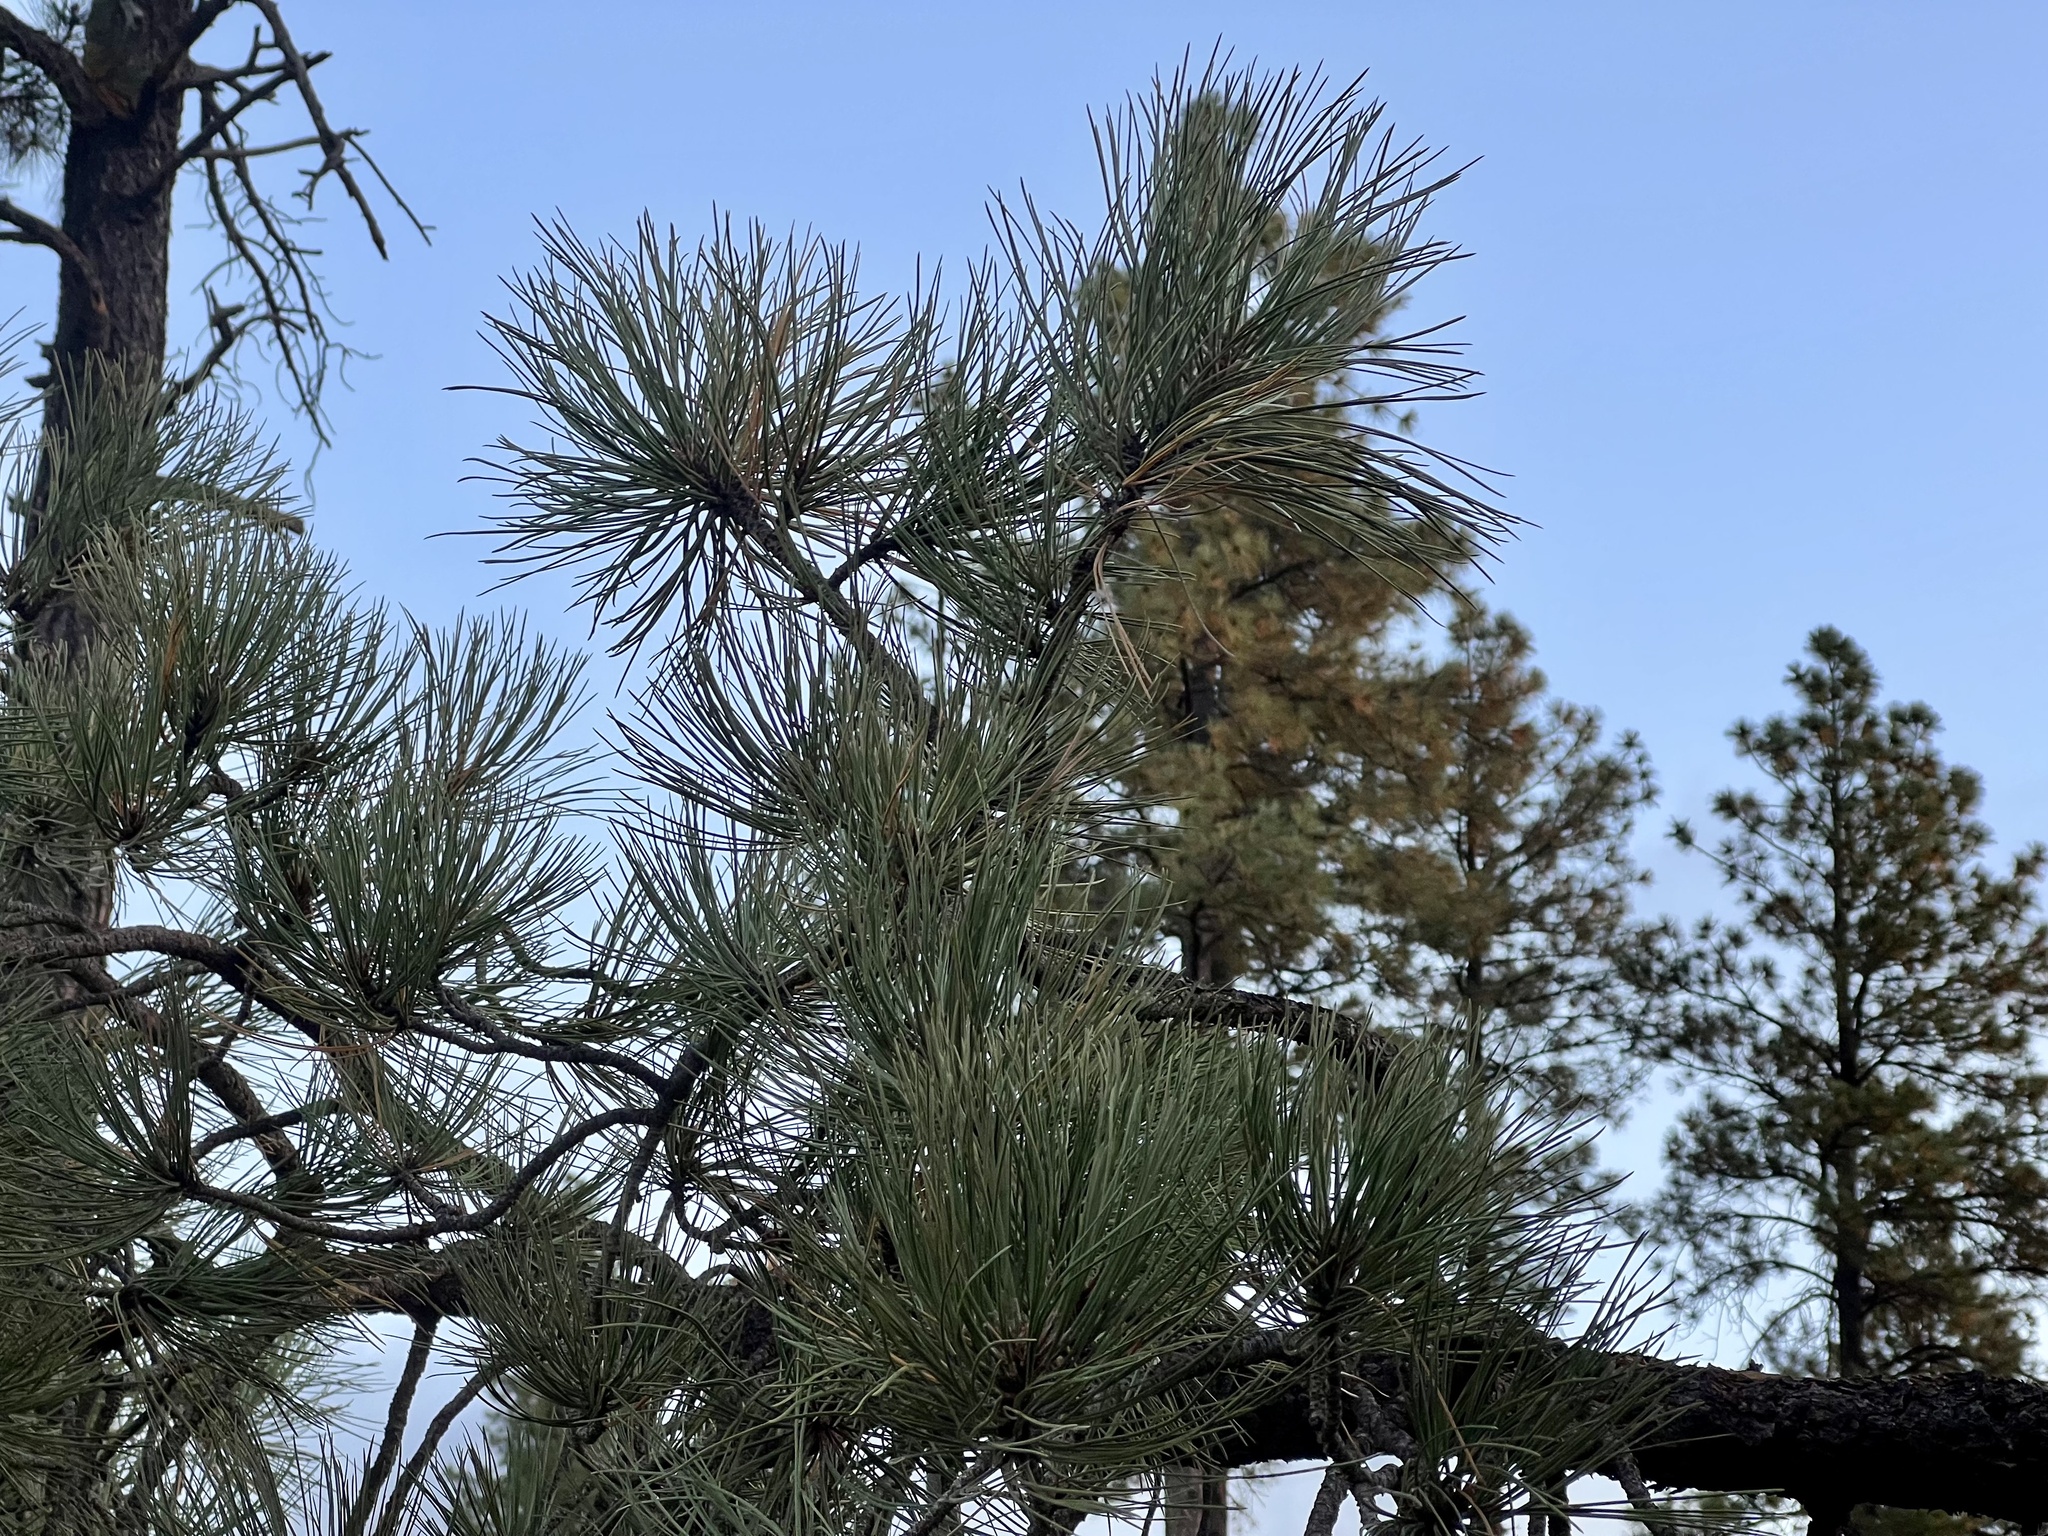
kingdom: Plantae
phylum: Tracheophyta
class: Pinopsida
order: Pinales
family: Pinaceae
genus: Pinus
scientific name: Pinus ponderosa
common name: Western yellow-pine
